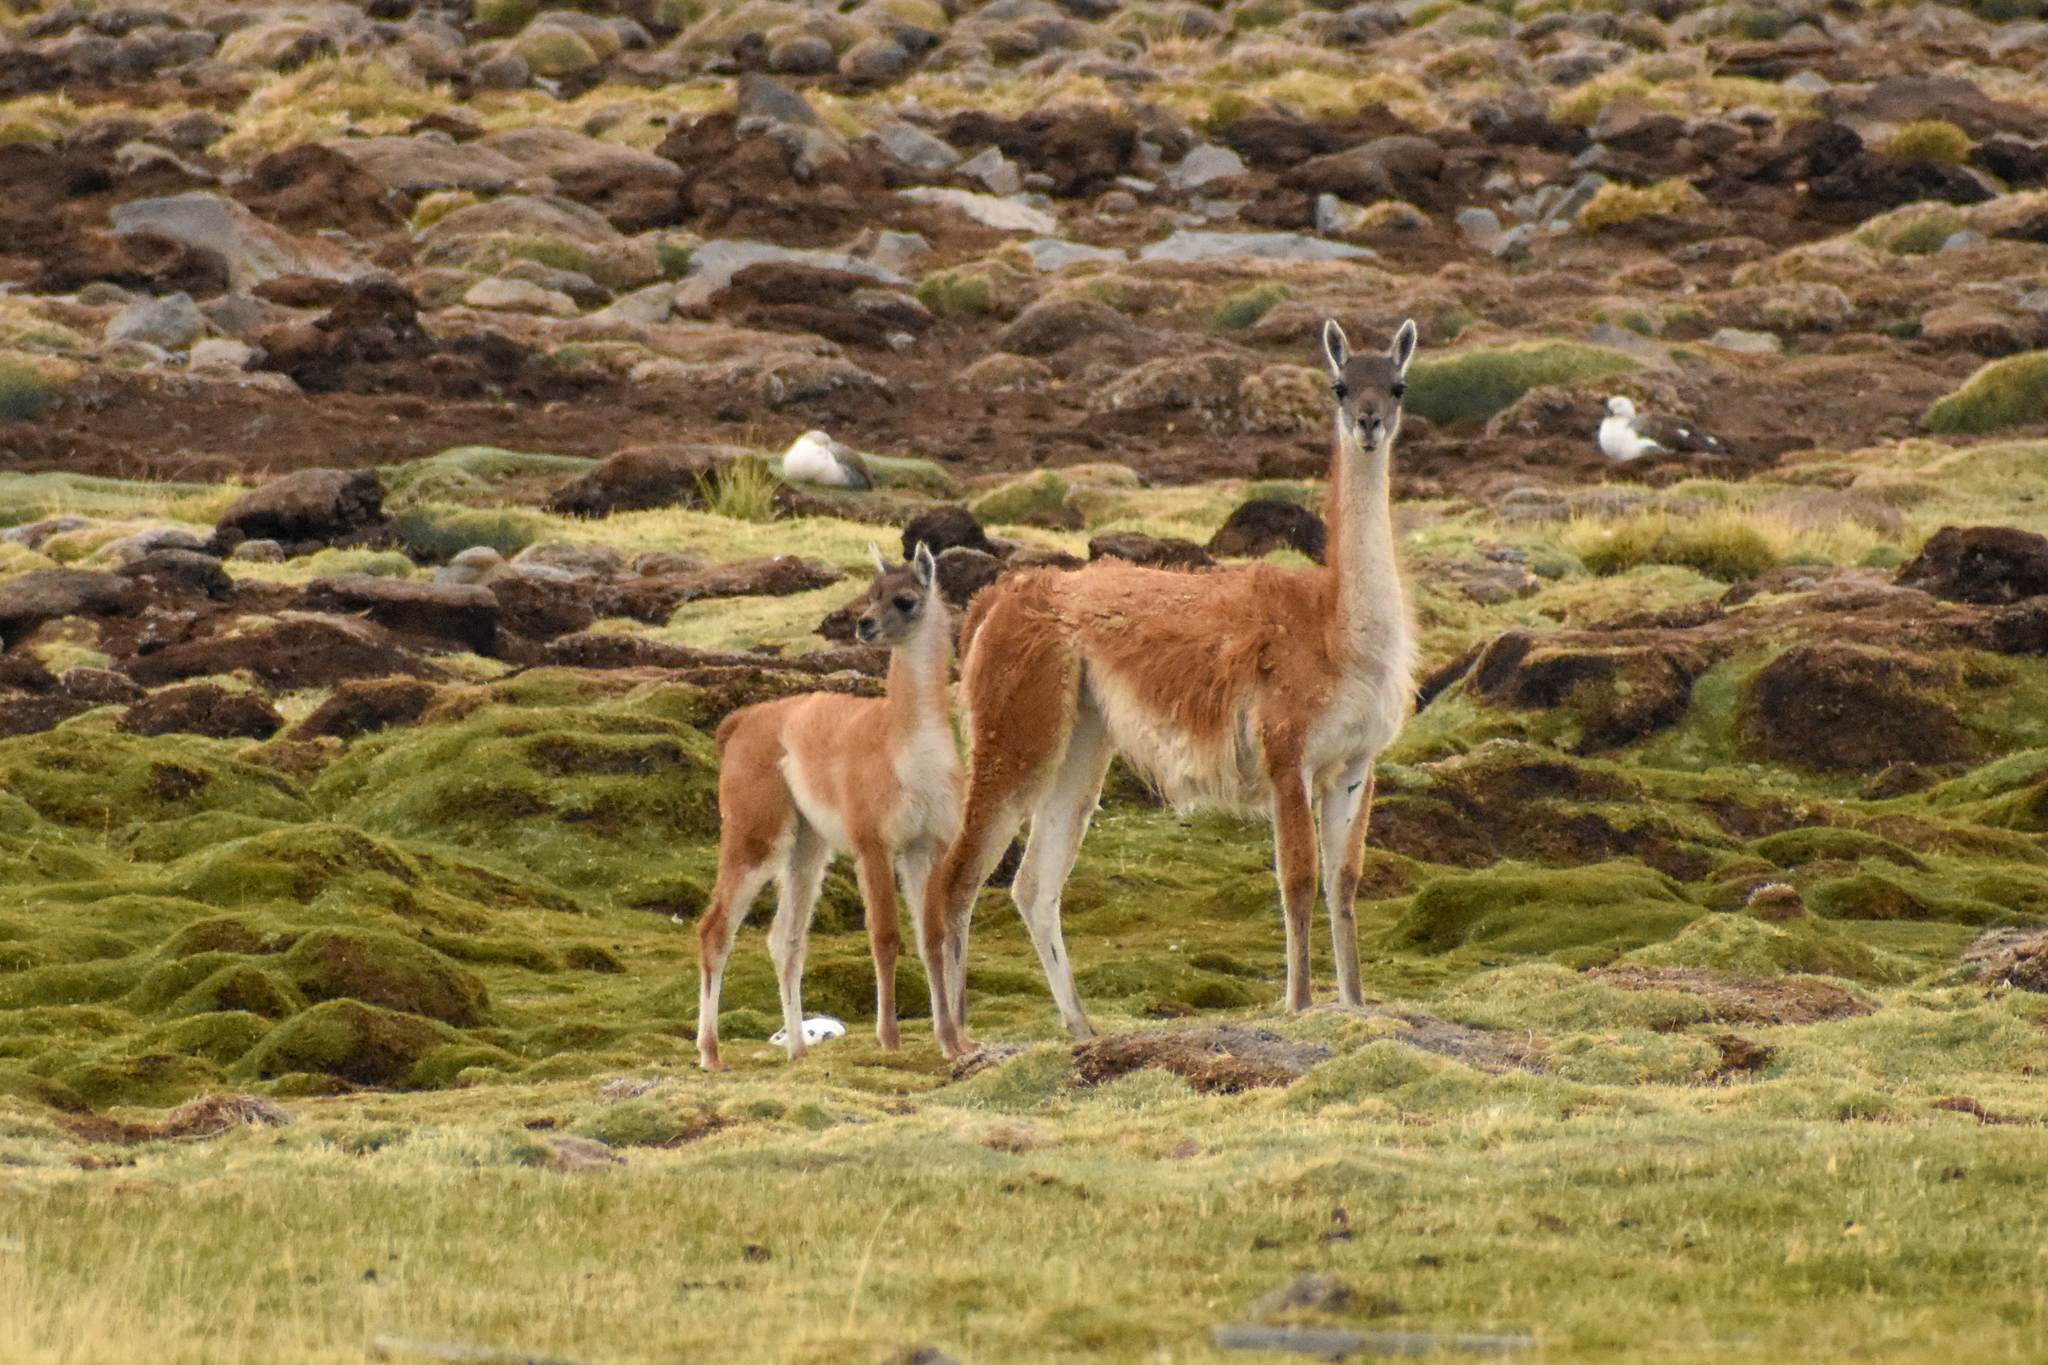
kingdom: Animalia
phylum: Chordata
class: Mammalia
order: Artiodactyla
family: Camelidae
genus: Lama
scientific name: Lama glama
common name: Llama
